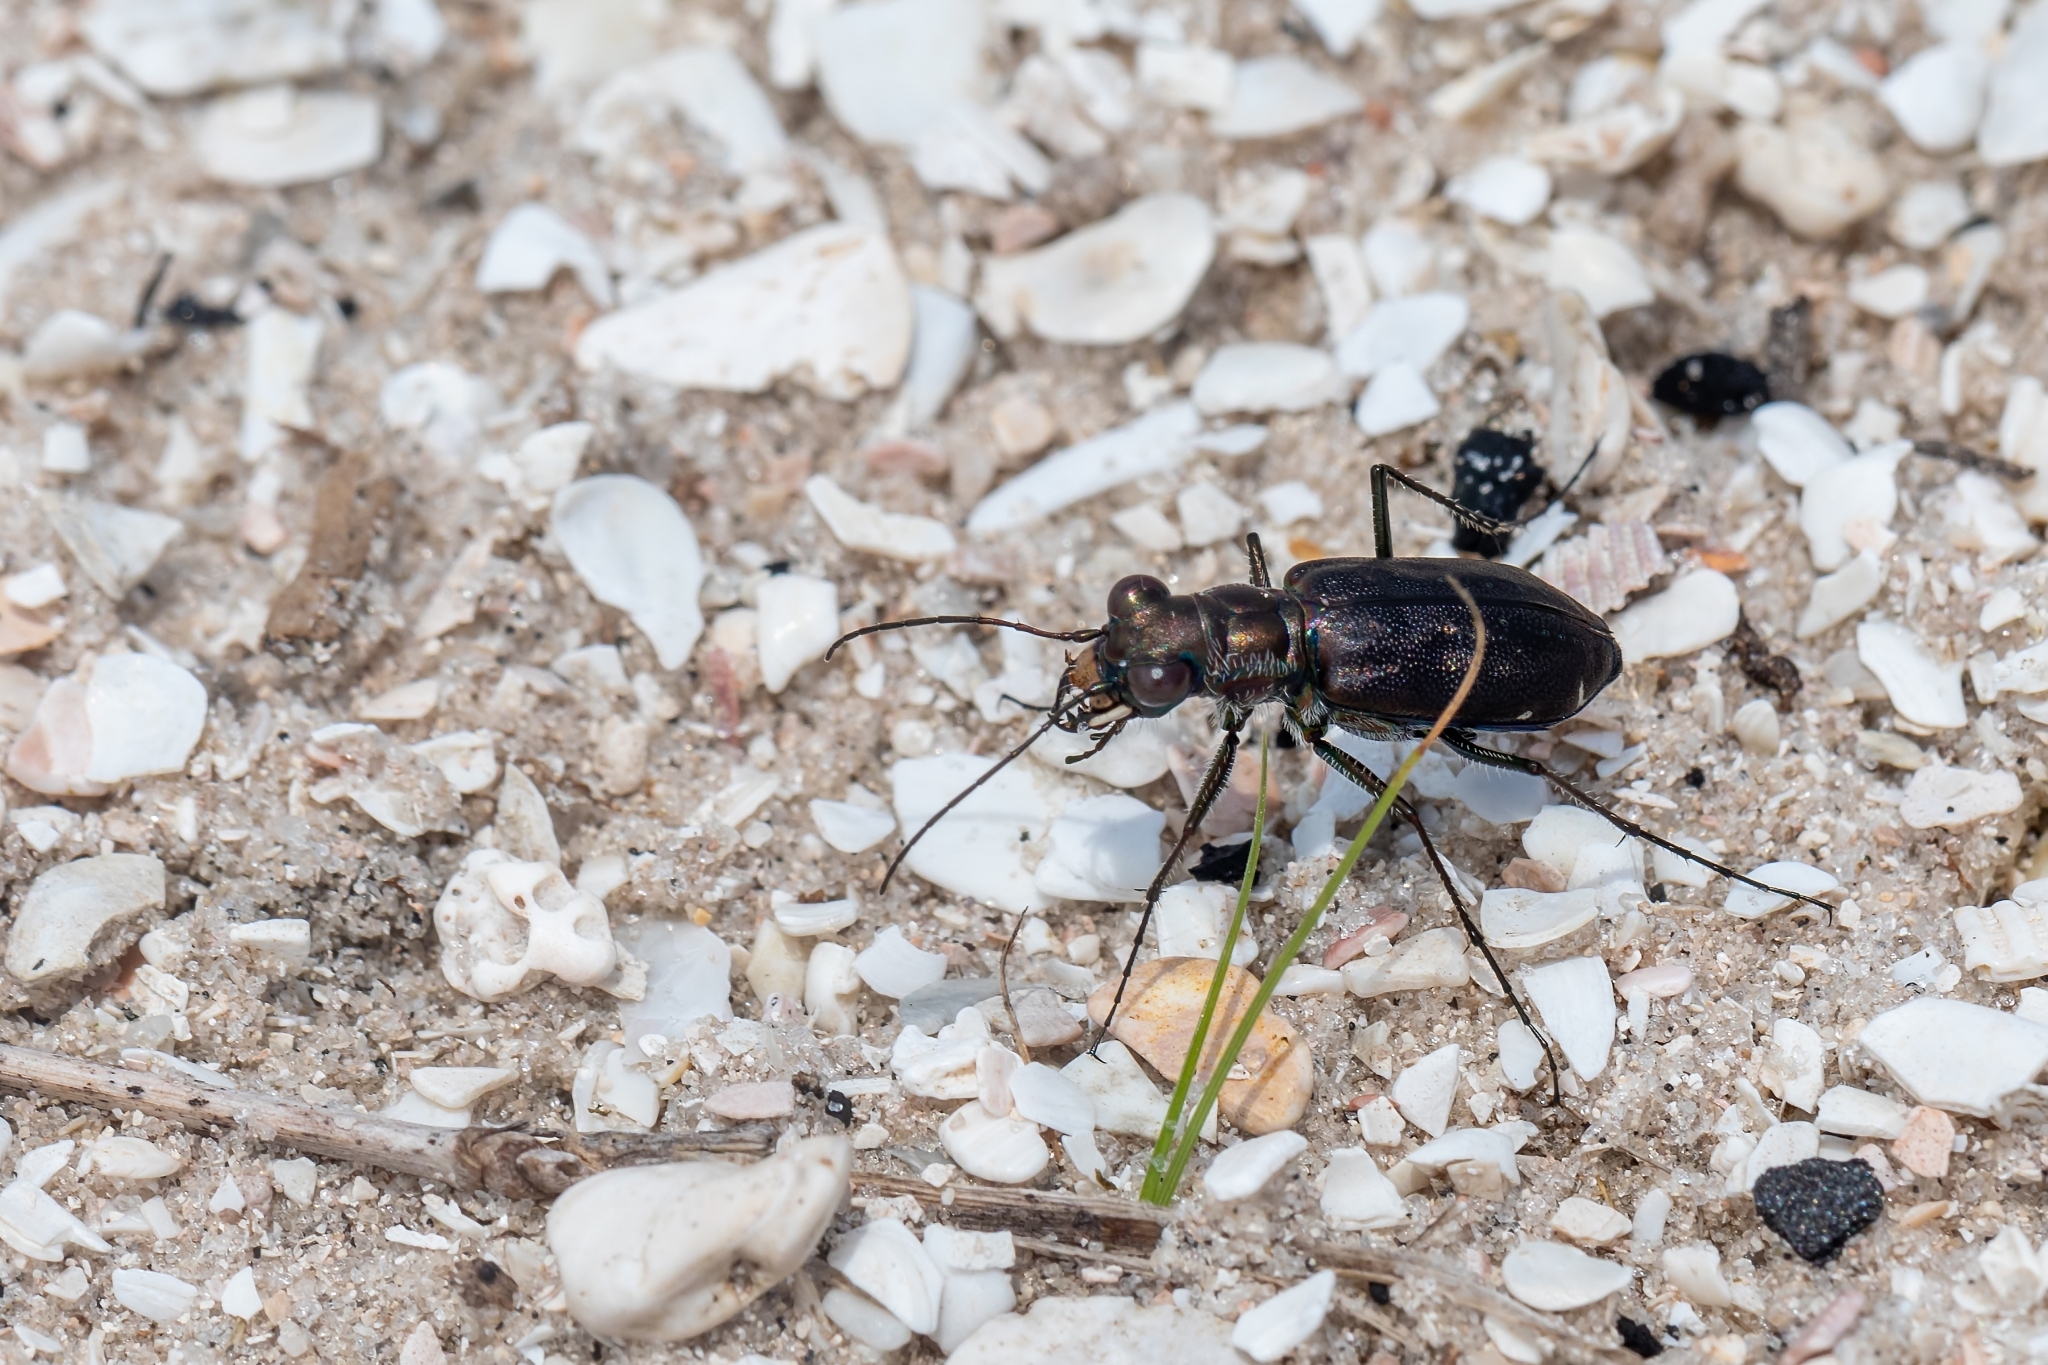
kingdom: Animalia
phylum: Arthropoda
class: Insecta
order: Coleoptera
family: Carabidae
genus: Cicindela
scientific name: Cicindela punctulata
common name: Punctured tiger beetle
